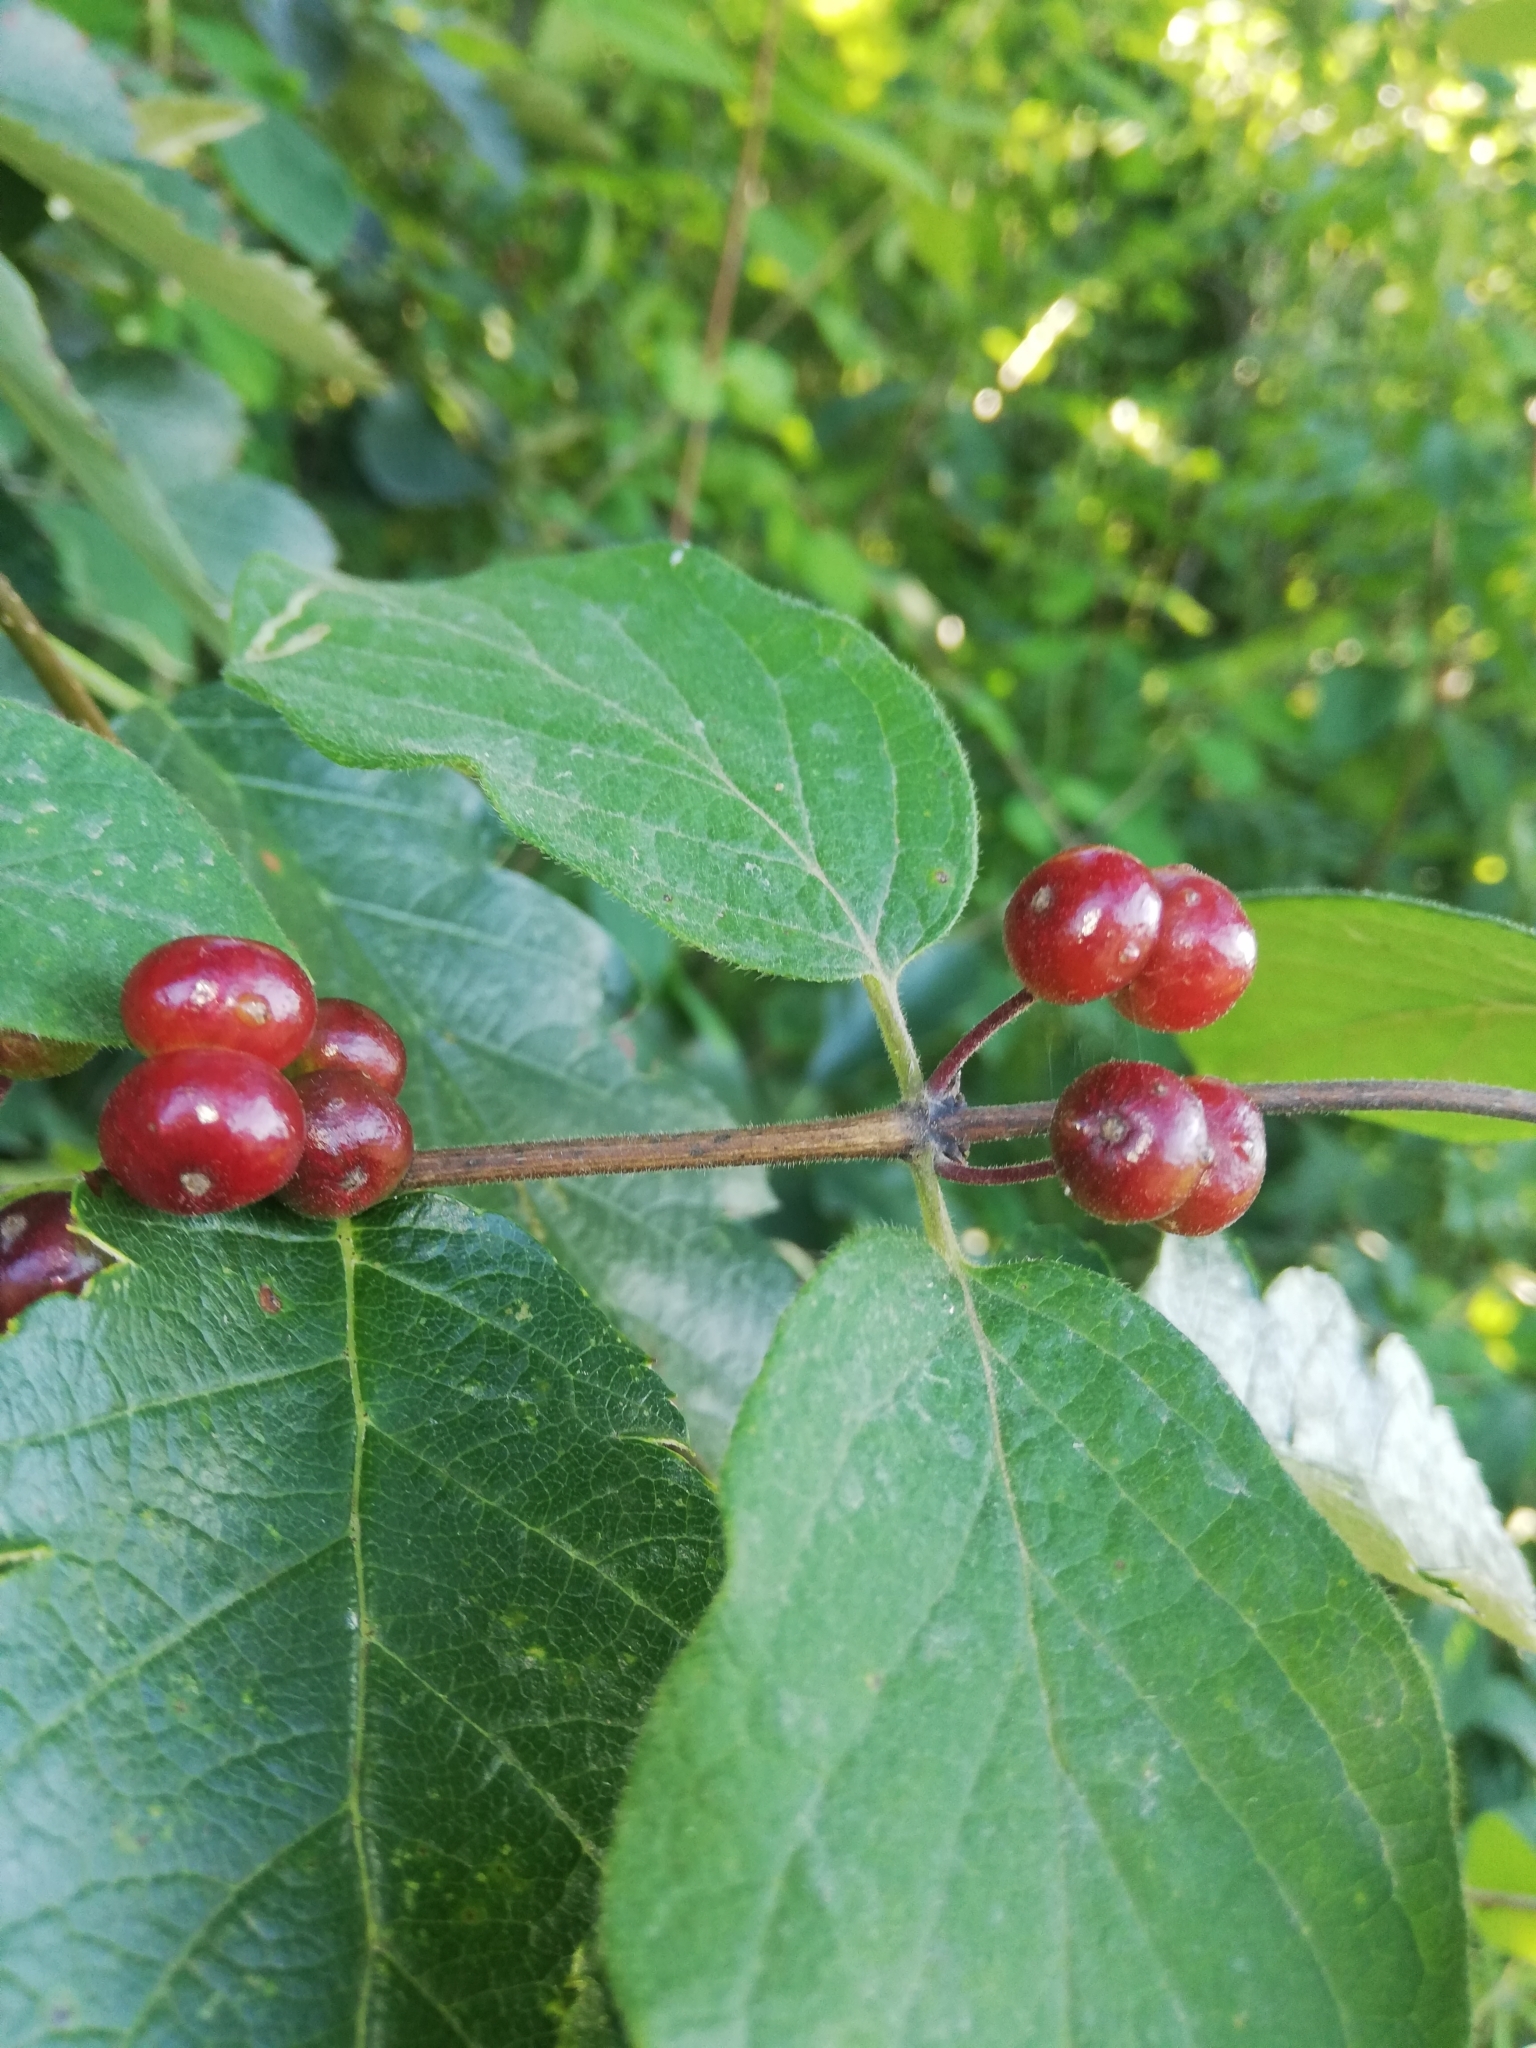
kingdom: Plantae
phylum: Tracheophyta
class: Magnoliopsida
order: Dipsacales
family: Caprifoliaceae
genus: Lonicera
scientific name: Lonicera xylosteum
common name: Fly honeysuckle
